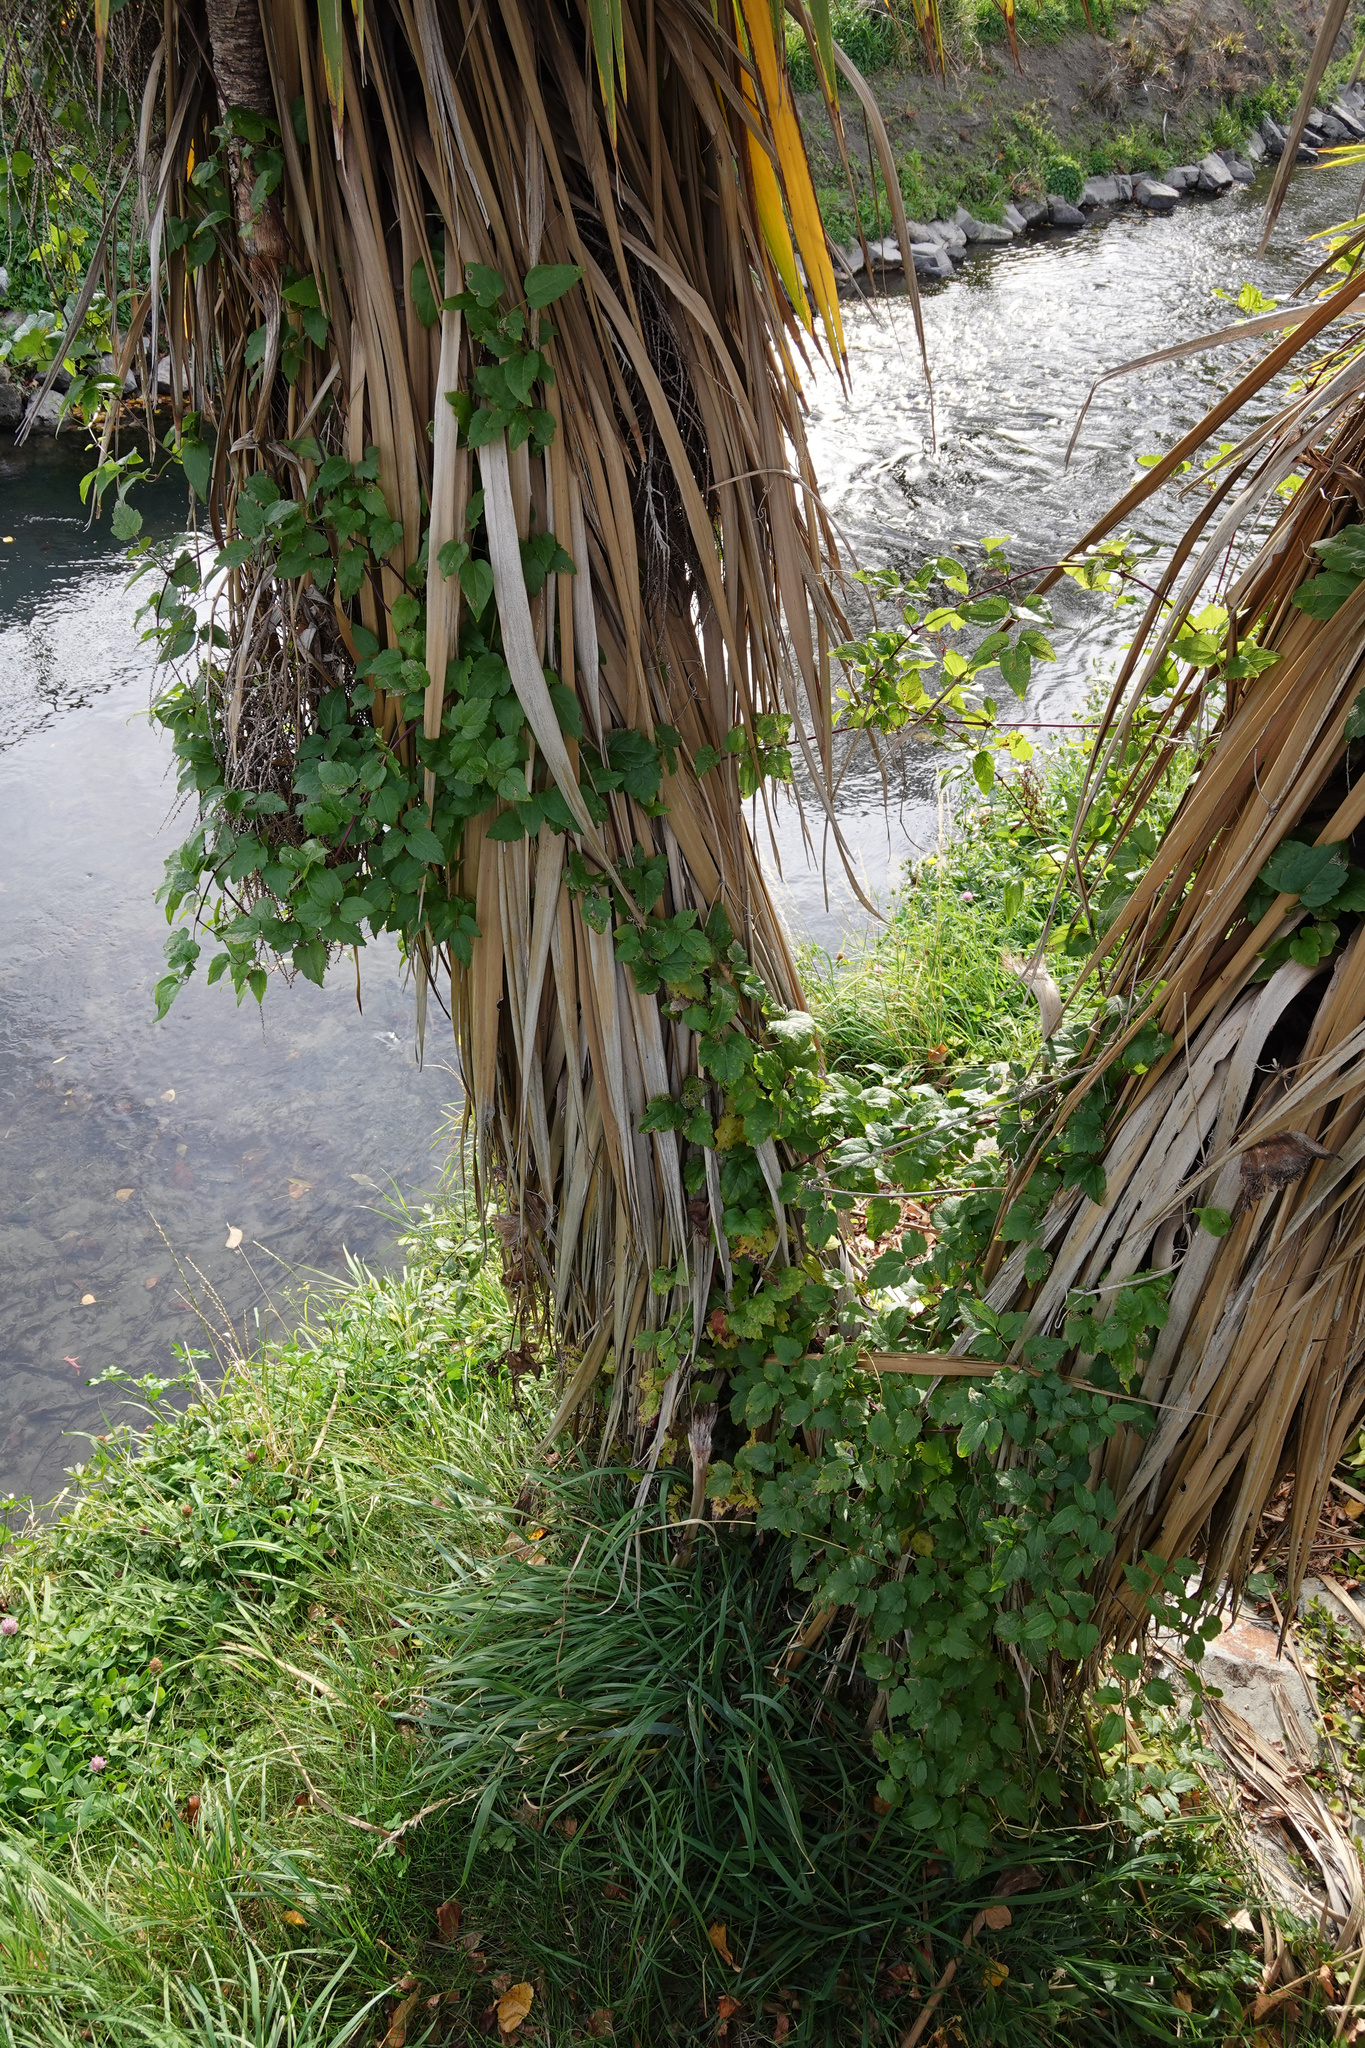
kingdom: Plantae
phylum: Tracheophyta
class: Magnoliopsida
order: Ranunculales
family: Ranunculaceae
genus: Clematis
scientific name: Clematis vitalba
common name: Evergreen clematis
